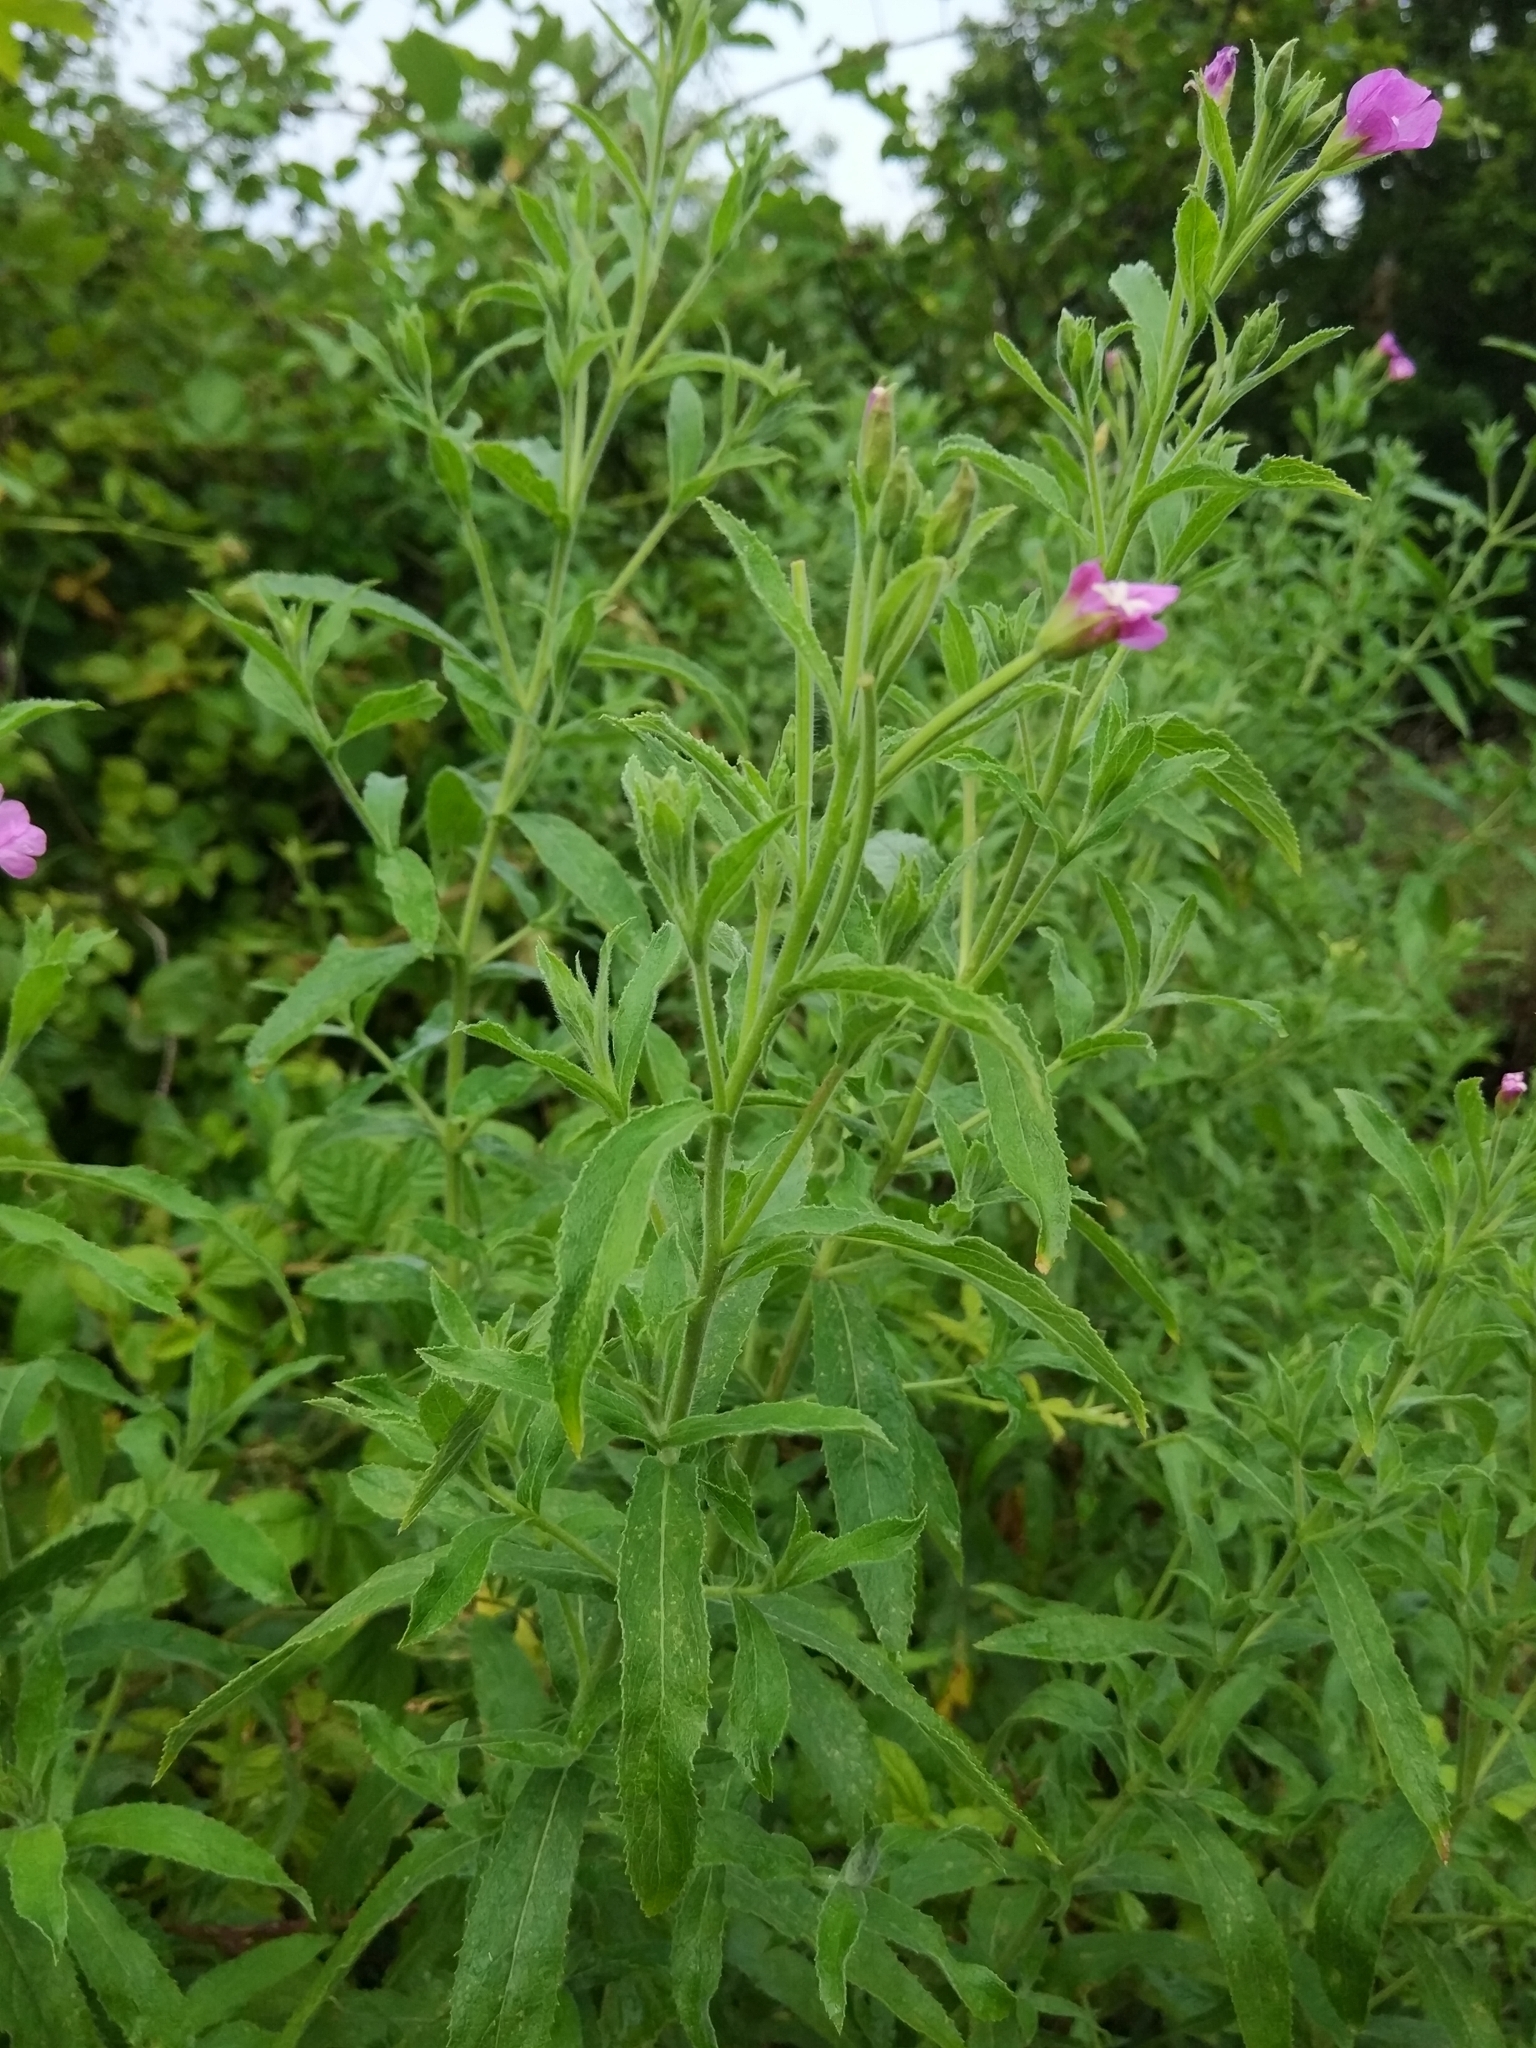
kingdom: Plantae
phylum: Tracheophyta
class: Magnoliopsida
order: Myrtales
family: Onagraceae
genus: Epilobium
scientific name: Epilobium hirsutum
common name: Great willowherb
